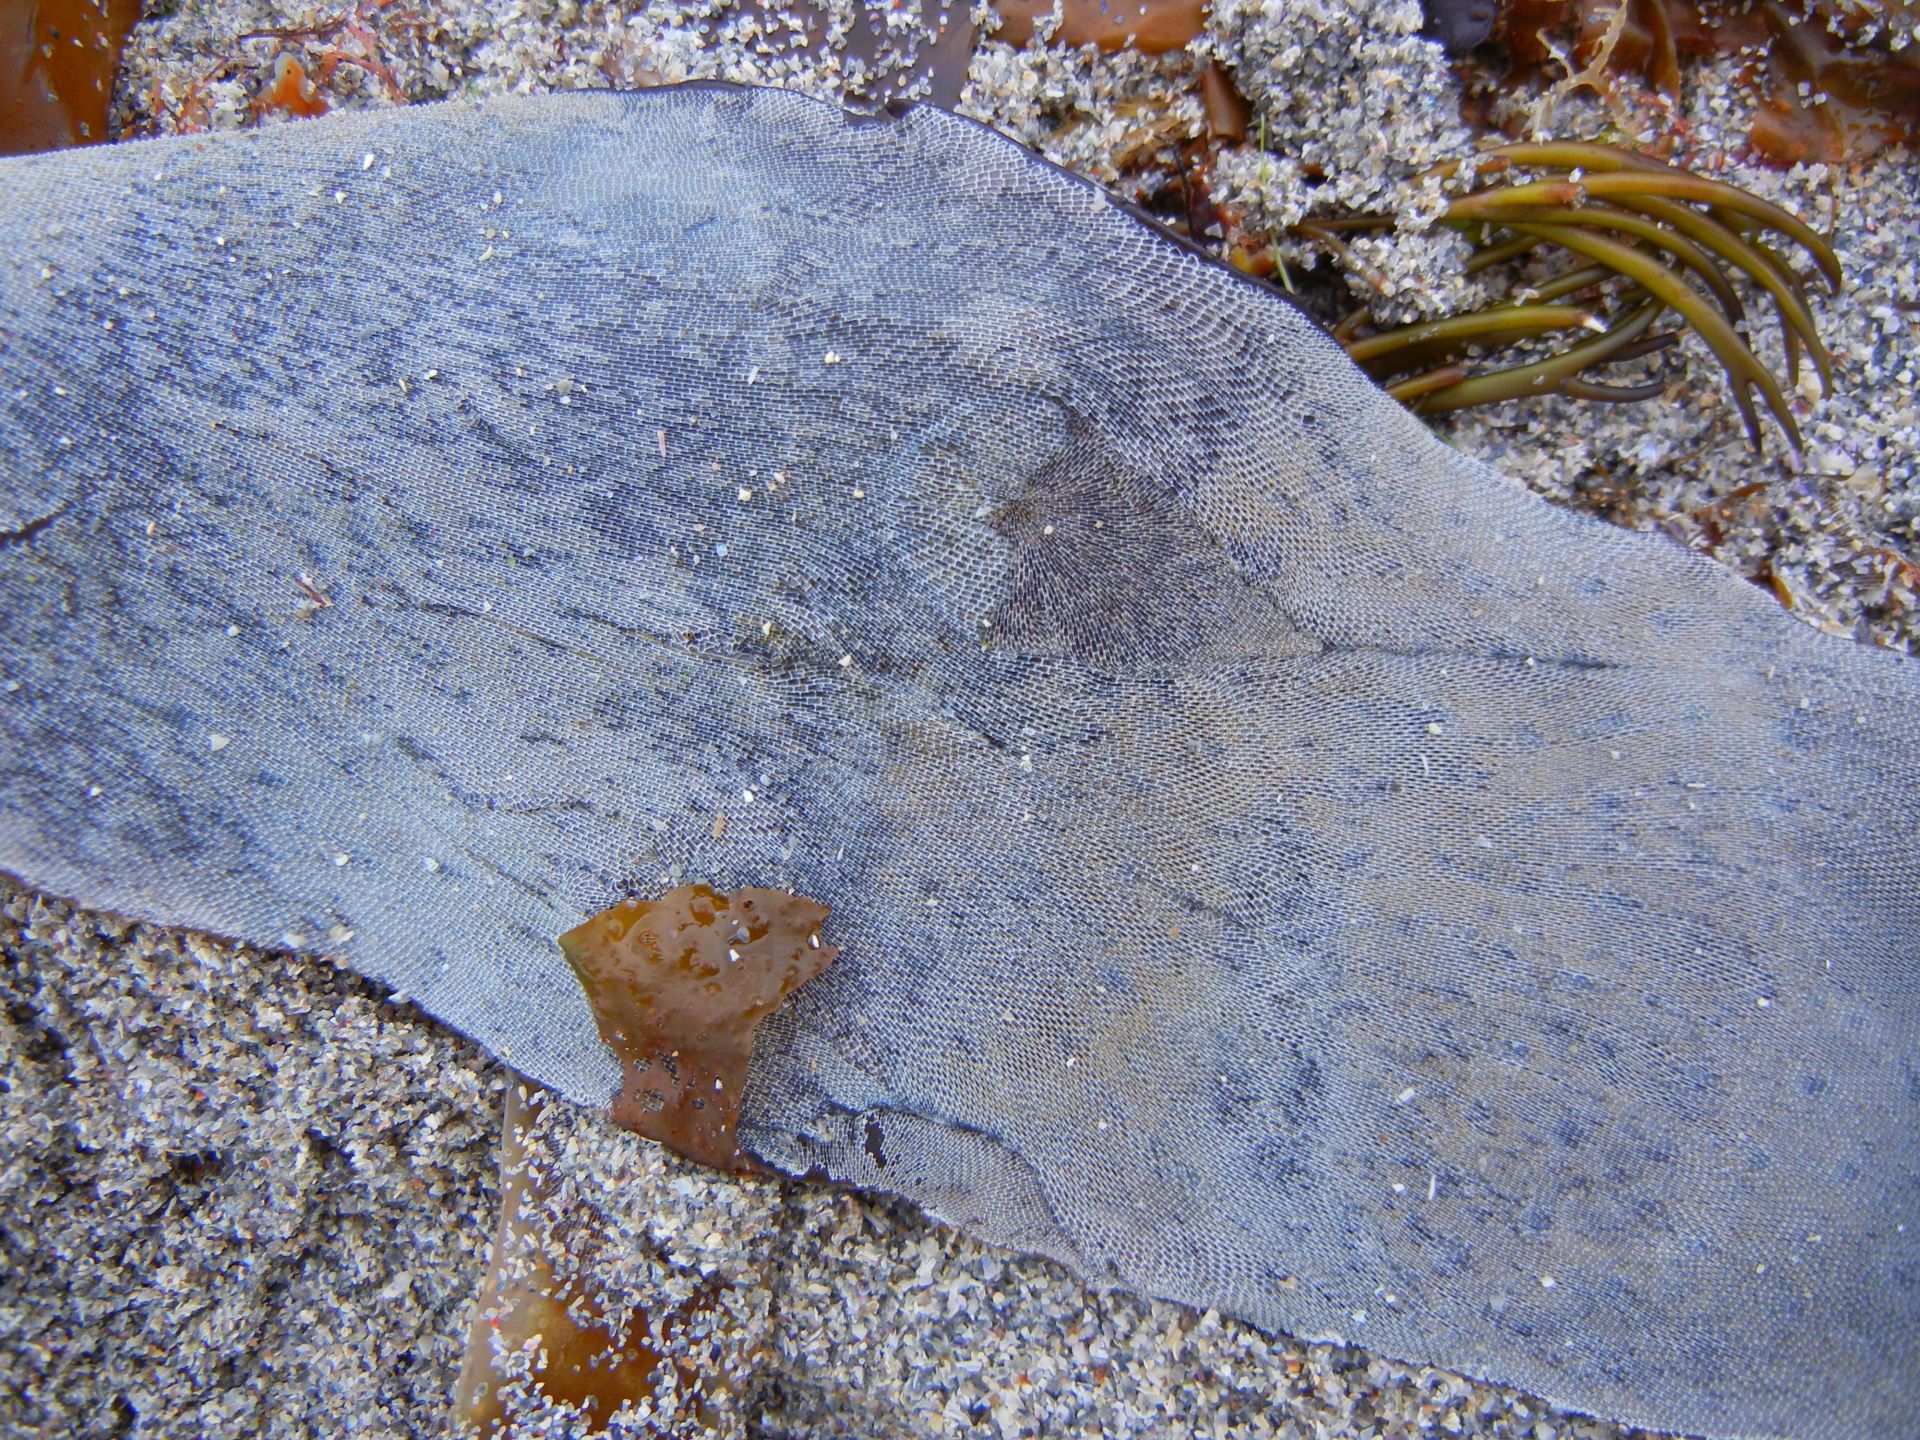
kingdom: Animalia
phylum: Bryozoa
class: Gymnolaemata
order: Cheilostomatida
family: Membraniporidae
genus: Membranipora
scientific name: Membranipora membranacea
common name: Sea mat
